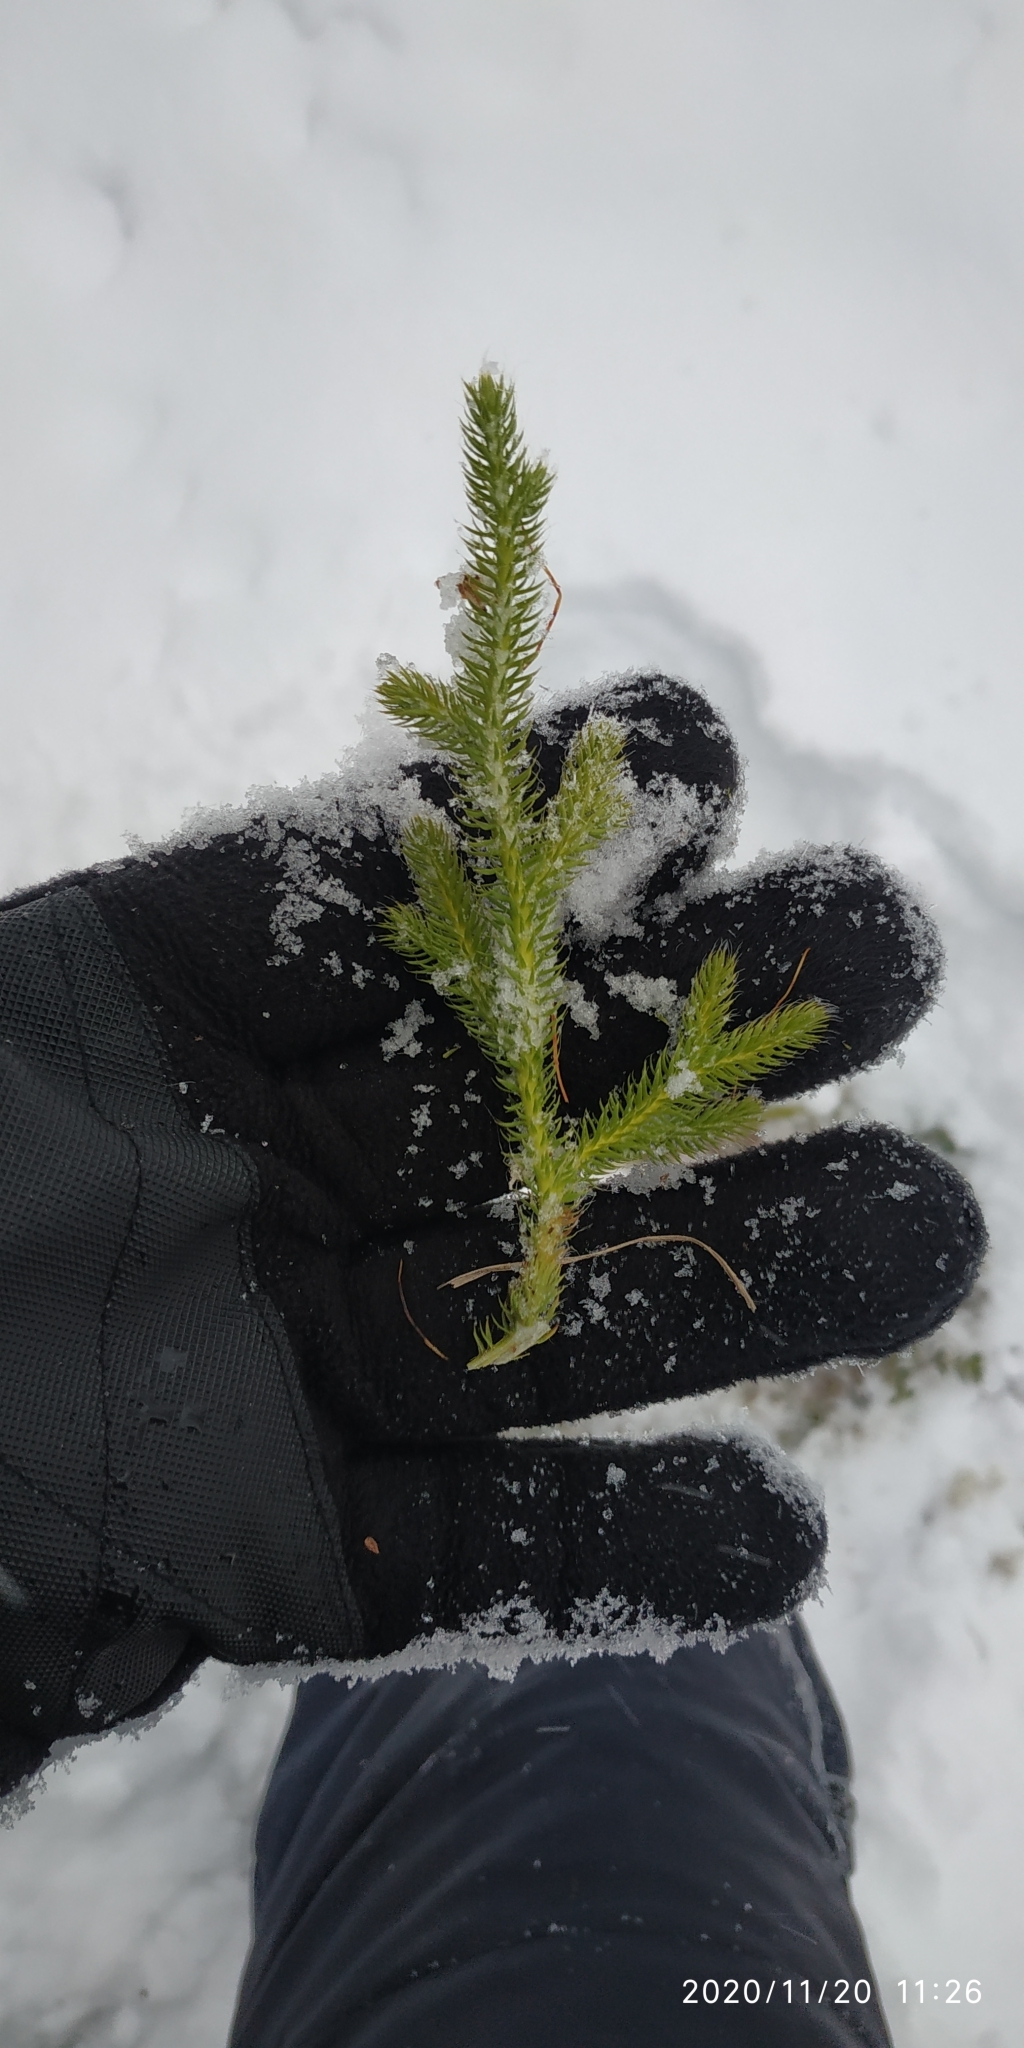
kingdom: Plantae
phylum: Tracheophyta
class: Lycopodiopsida
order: Lycopodiales
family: Lycopodiaceae
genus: Lycopodium
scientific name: Lycopodium clavatum
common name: Stag's-horn clubmoss
